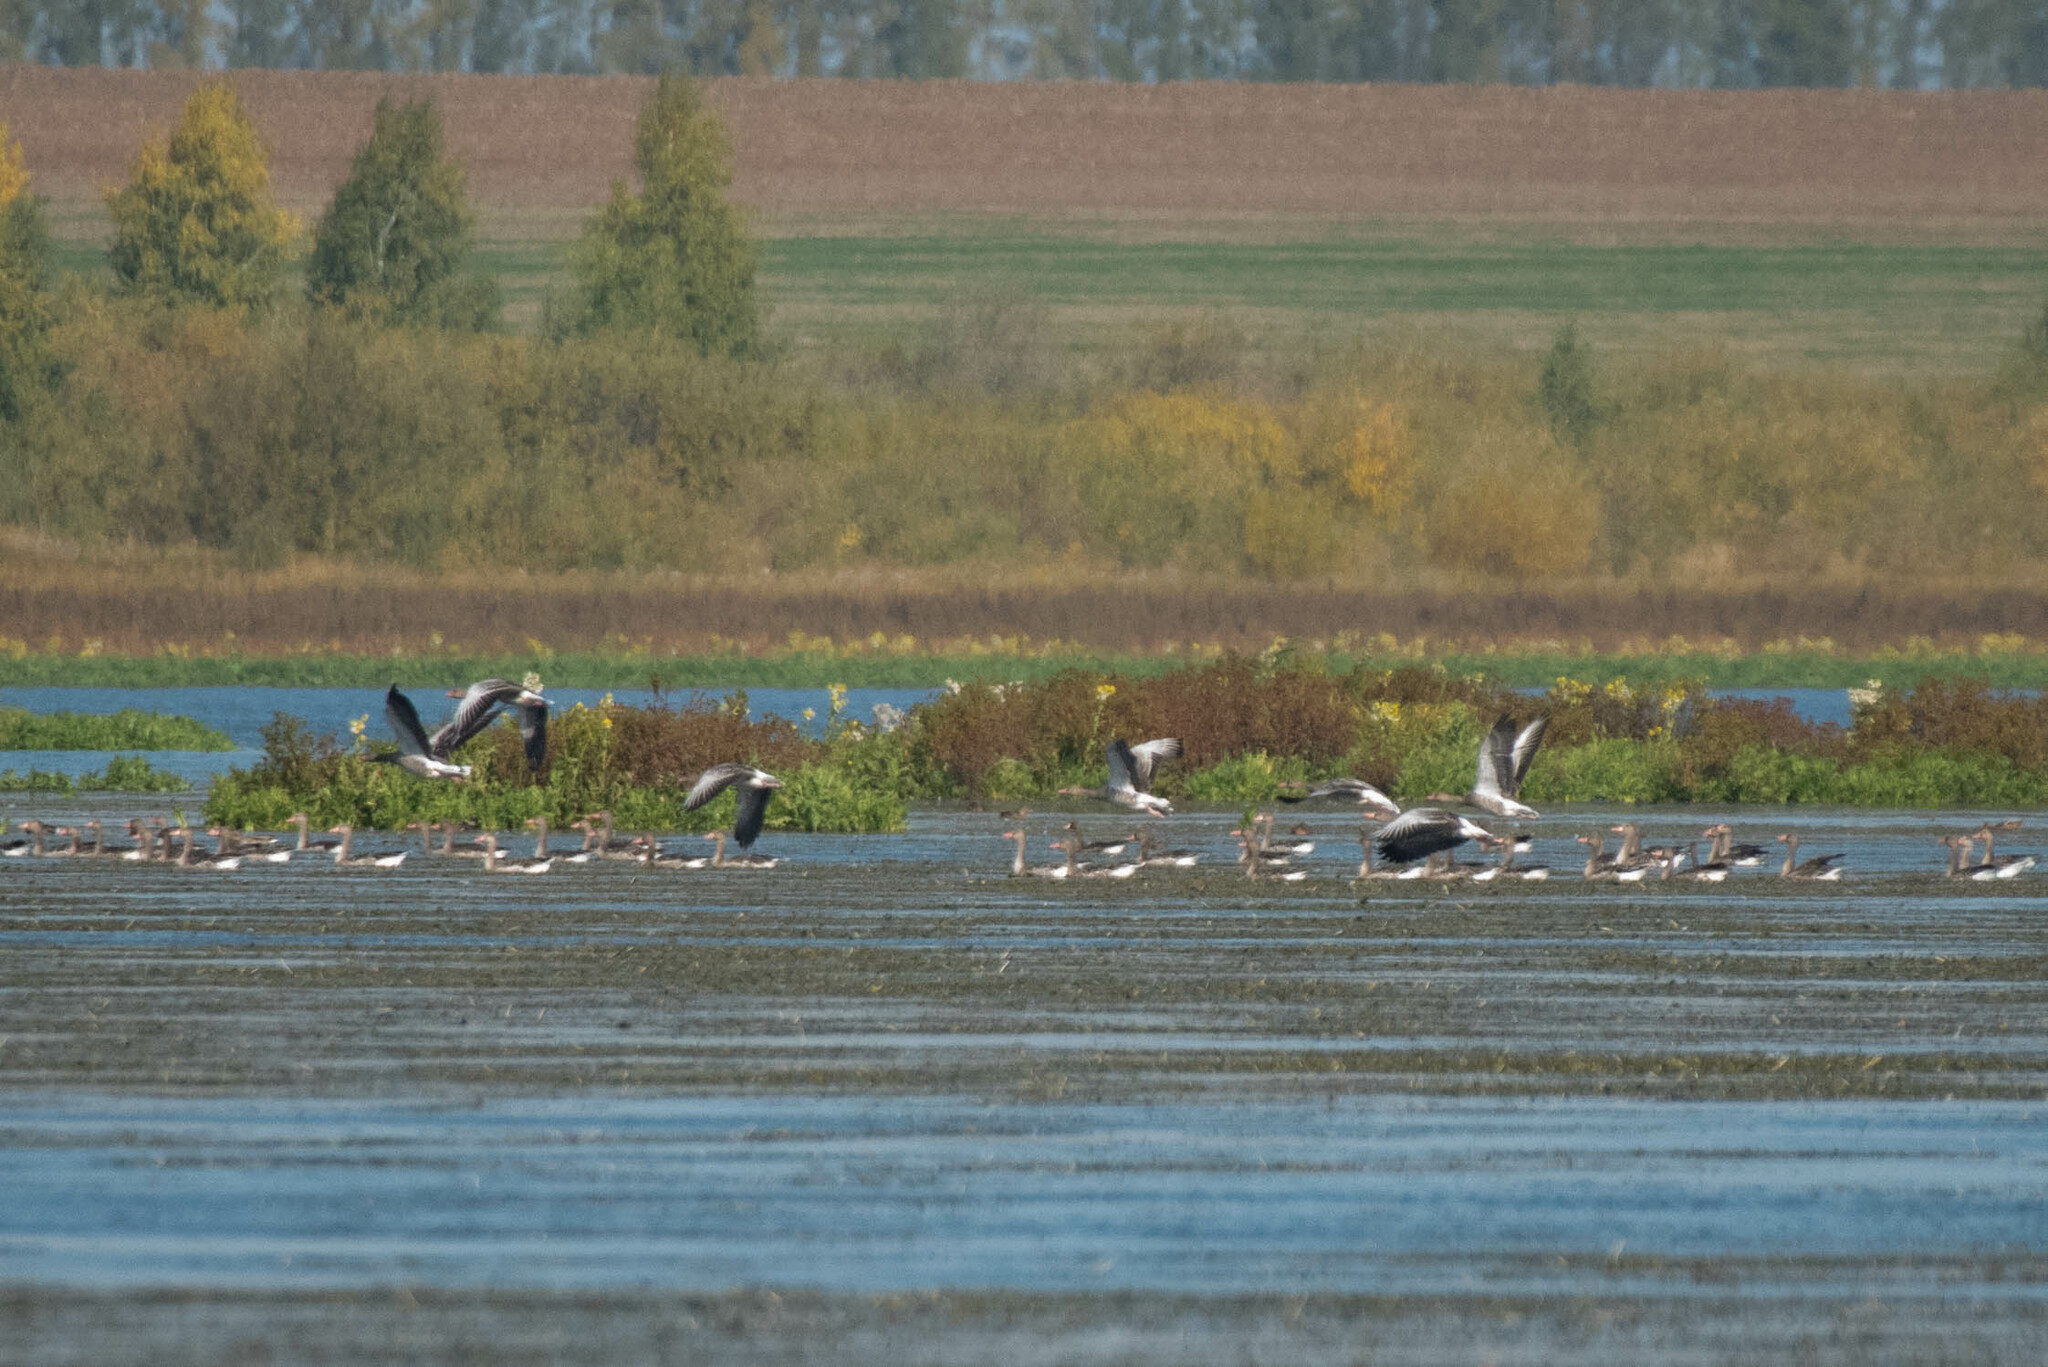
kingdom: Animalia
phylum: Chordata
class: Aves
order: Anseriformes
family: Anatidae
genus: Anser
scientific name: Anser anser
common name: Greylag goose
